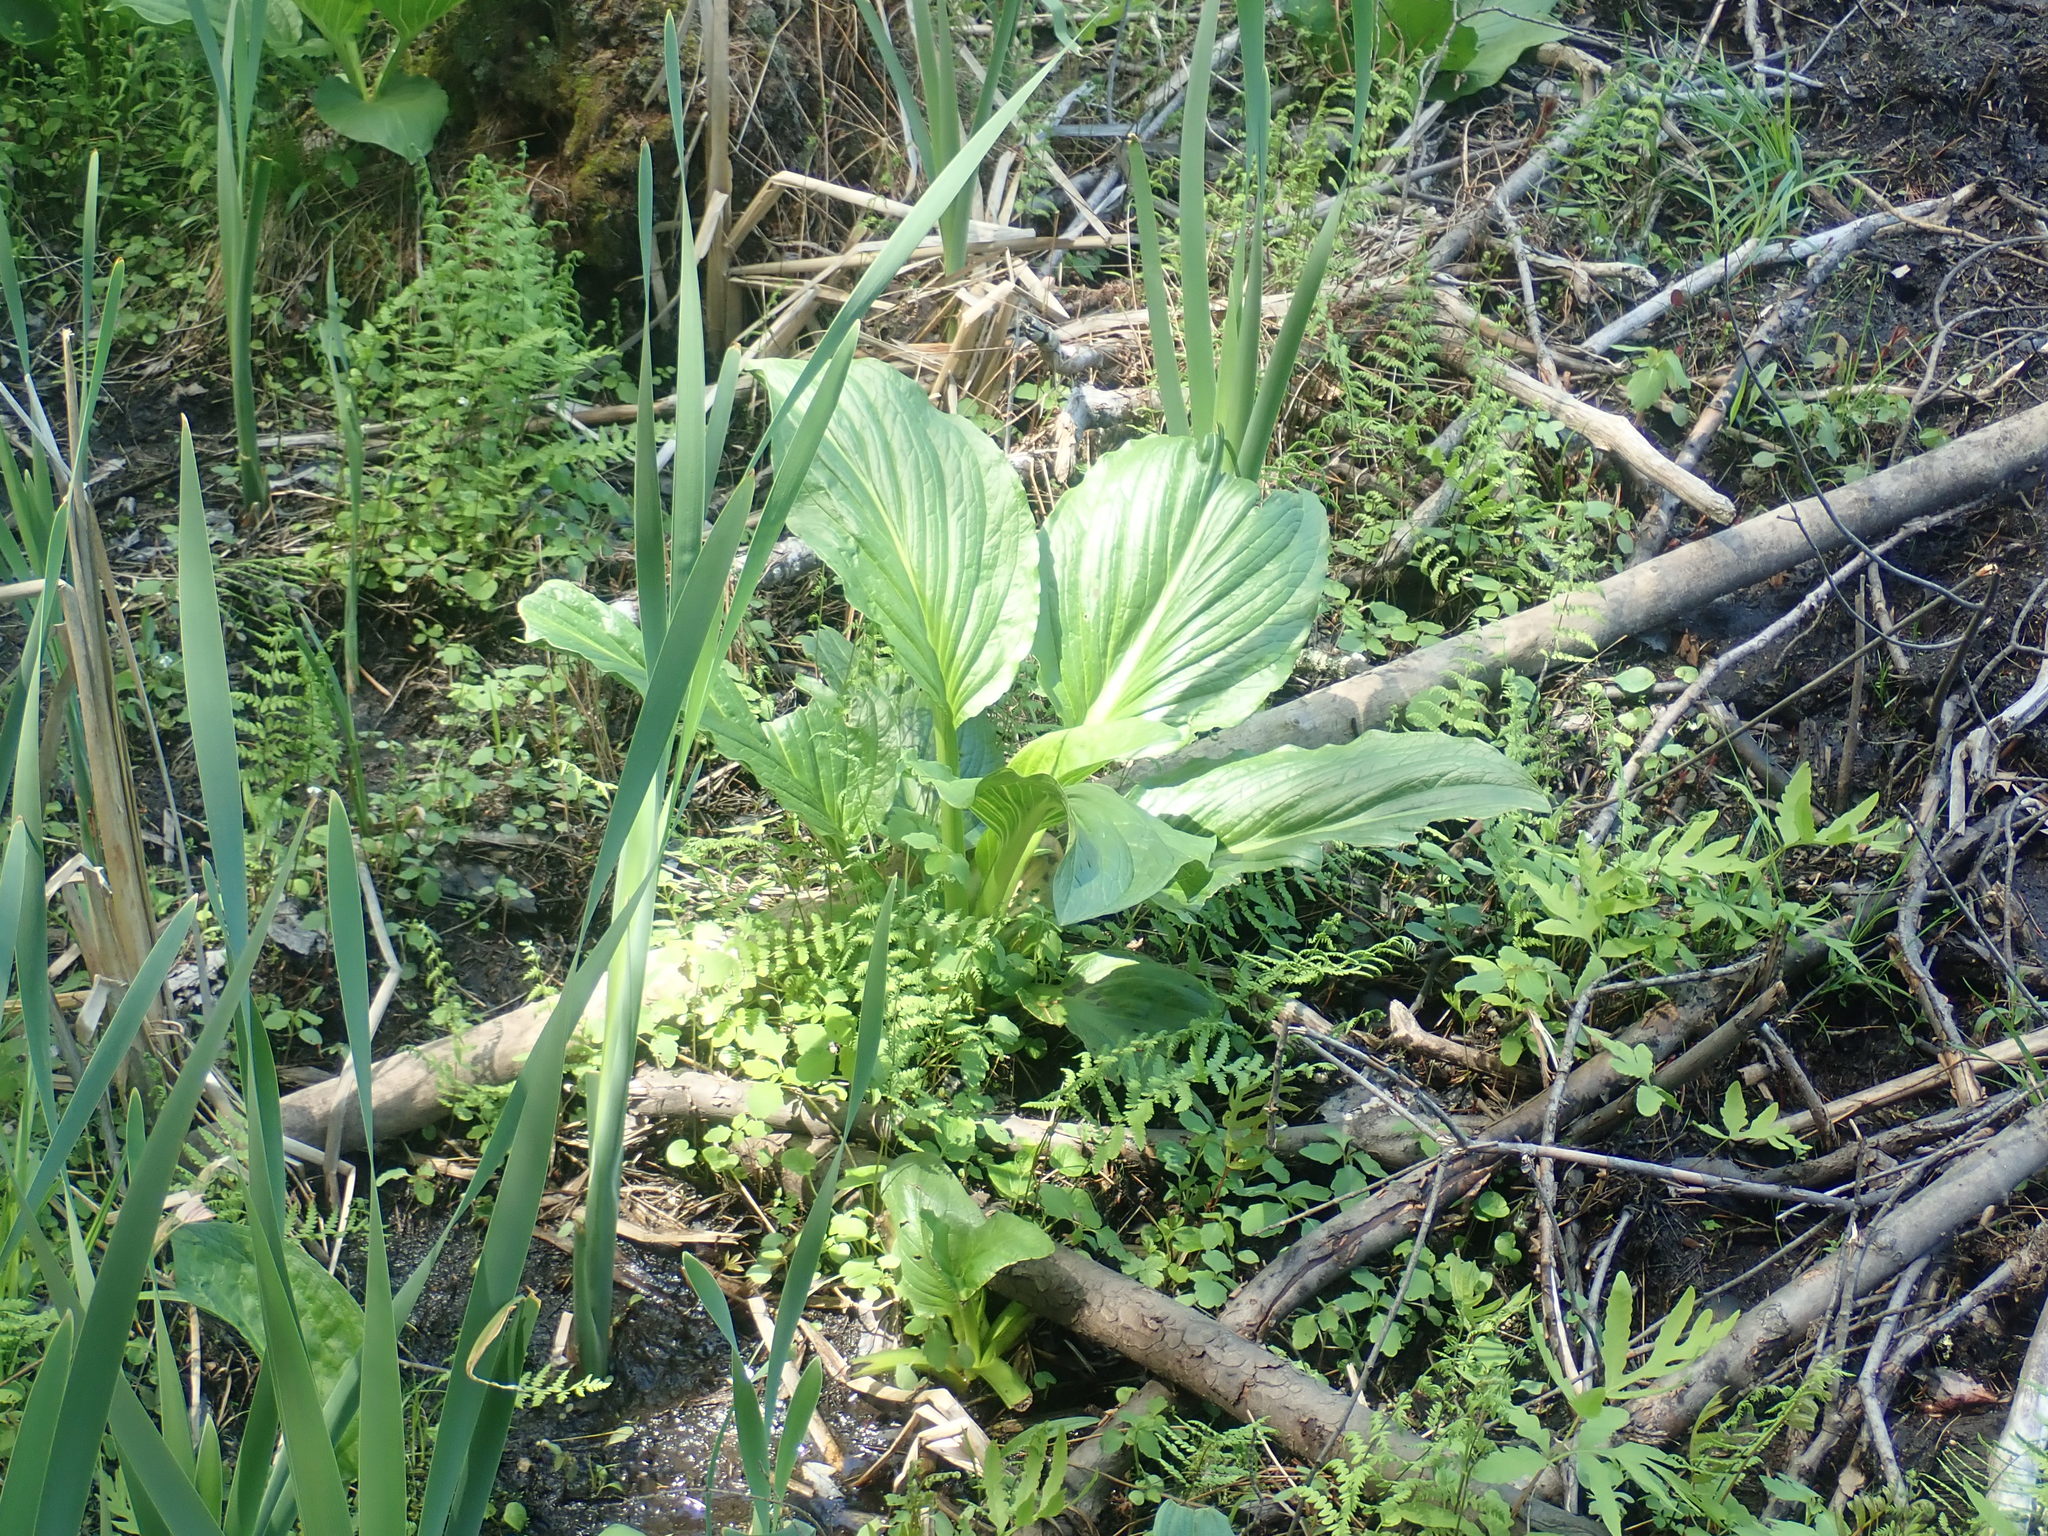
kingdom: Plantae
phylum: Tracheophyta
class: Liliopsida
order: Alismatales
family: Araceae
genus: Symplocarpus
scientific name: Symplocarpus foetidus
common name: Eastern skunk cabbage
